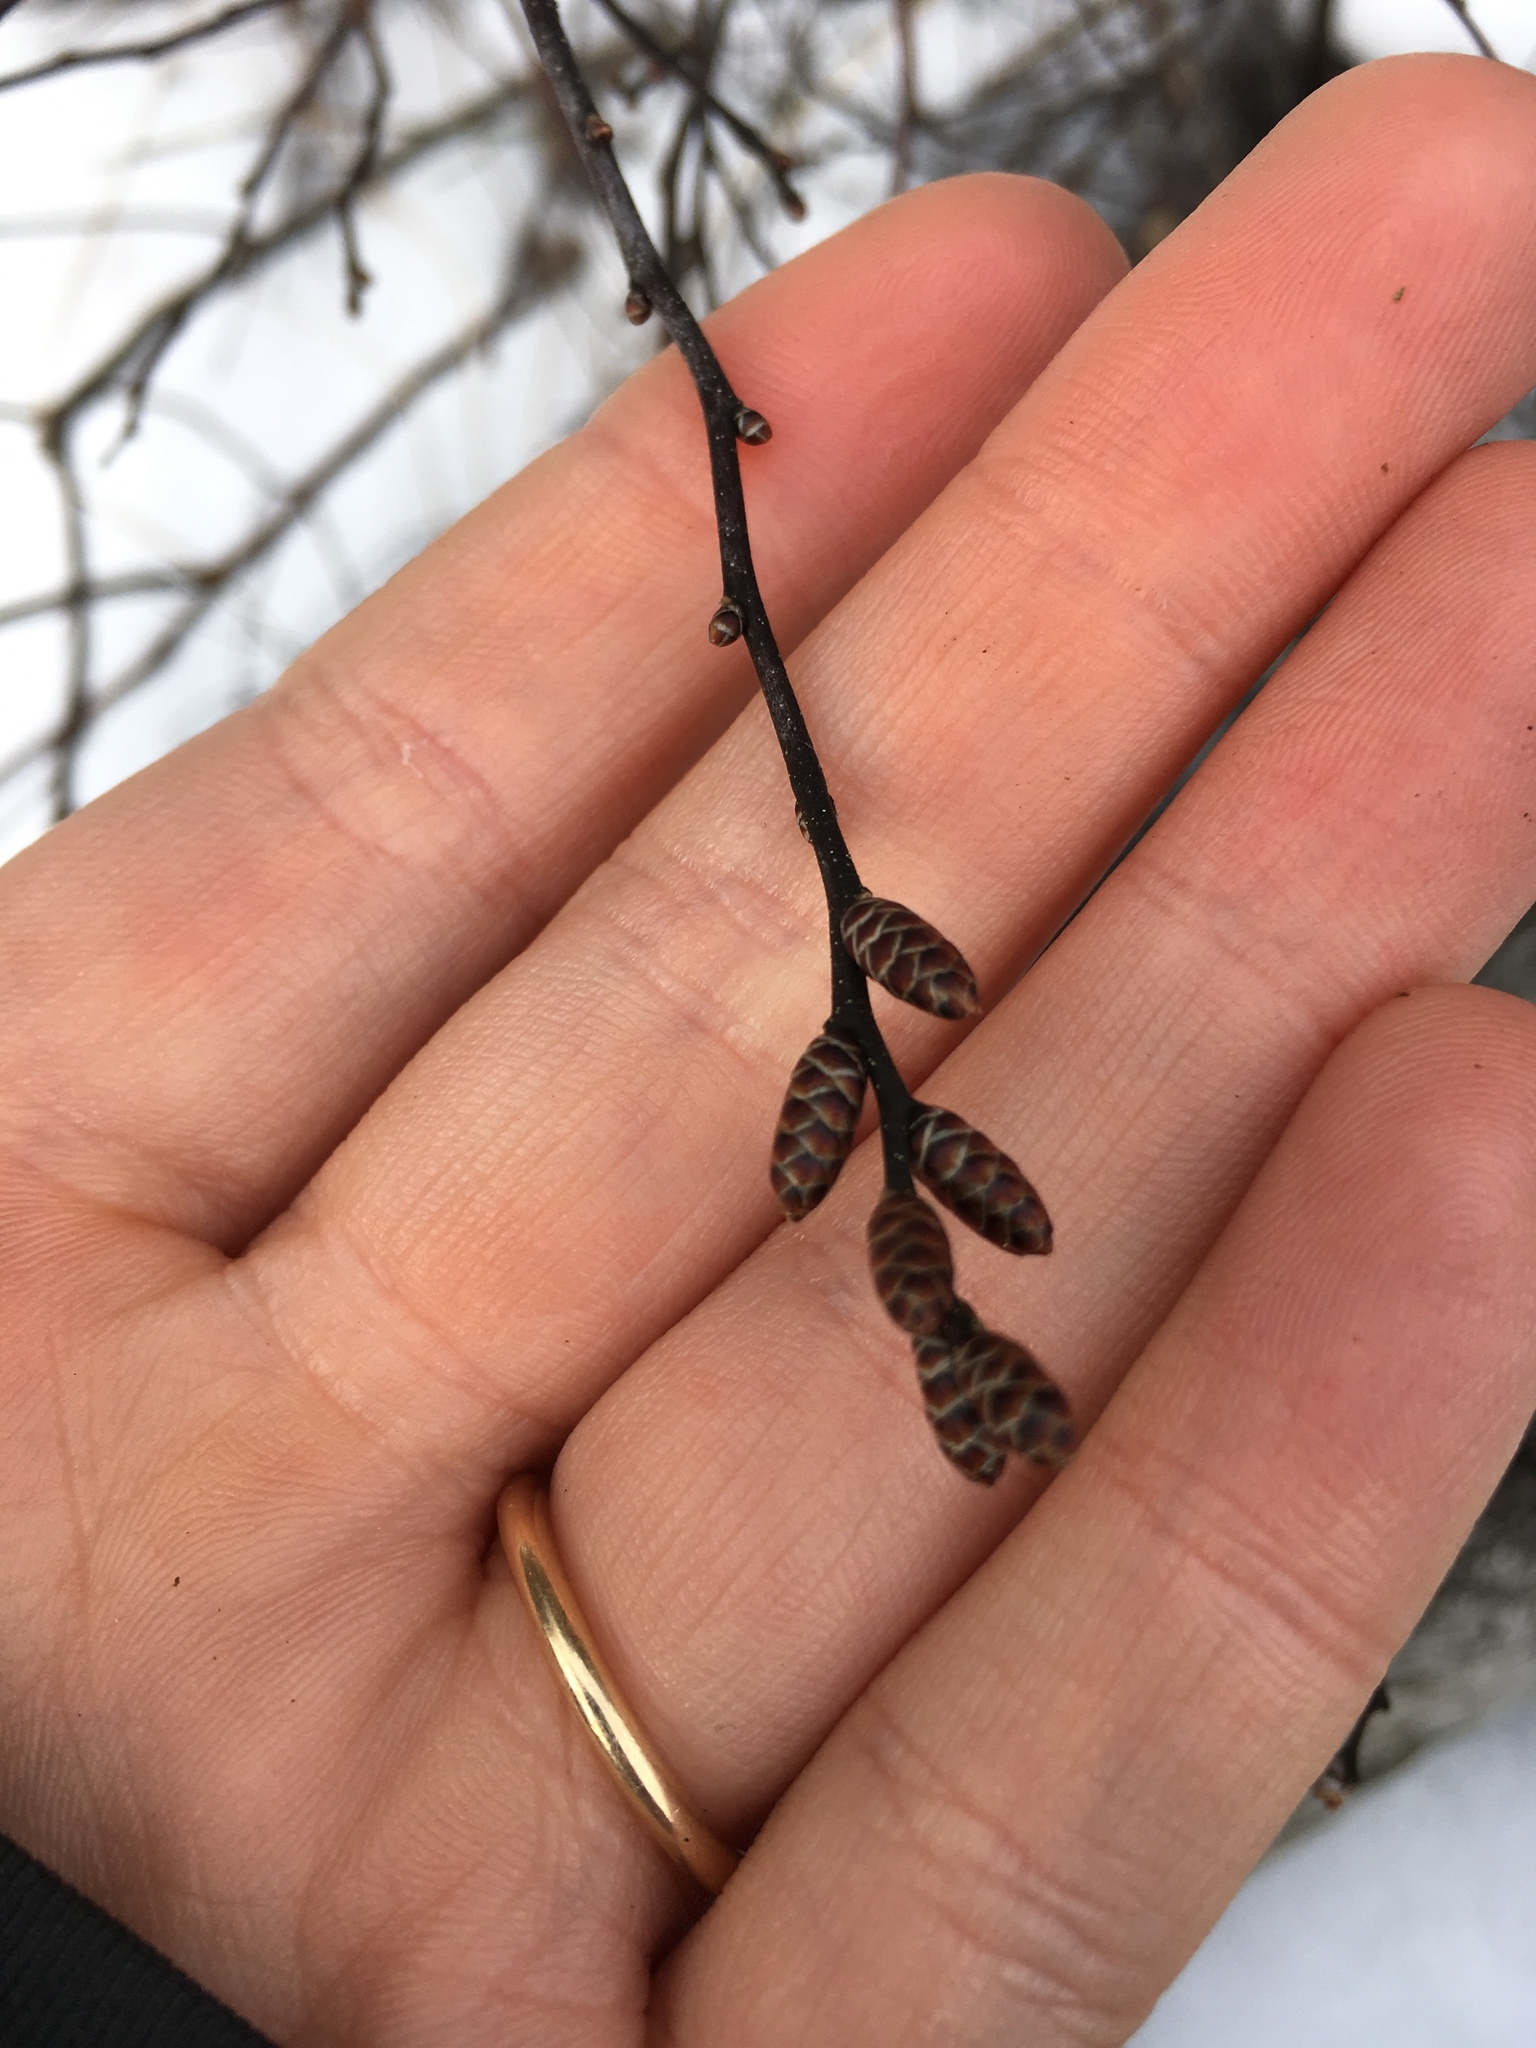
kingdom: Plantae
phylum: Tracheophyta
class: Magnoliopsida
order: Fagales
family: Myricaceae
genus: Myrica
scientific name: Myrica gale
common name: Sweet gale
